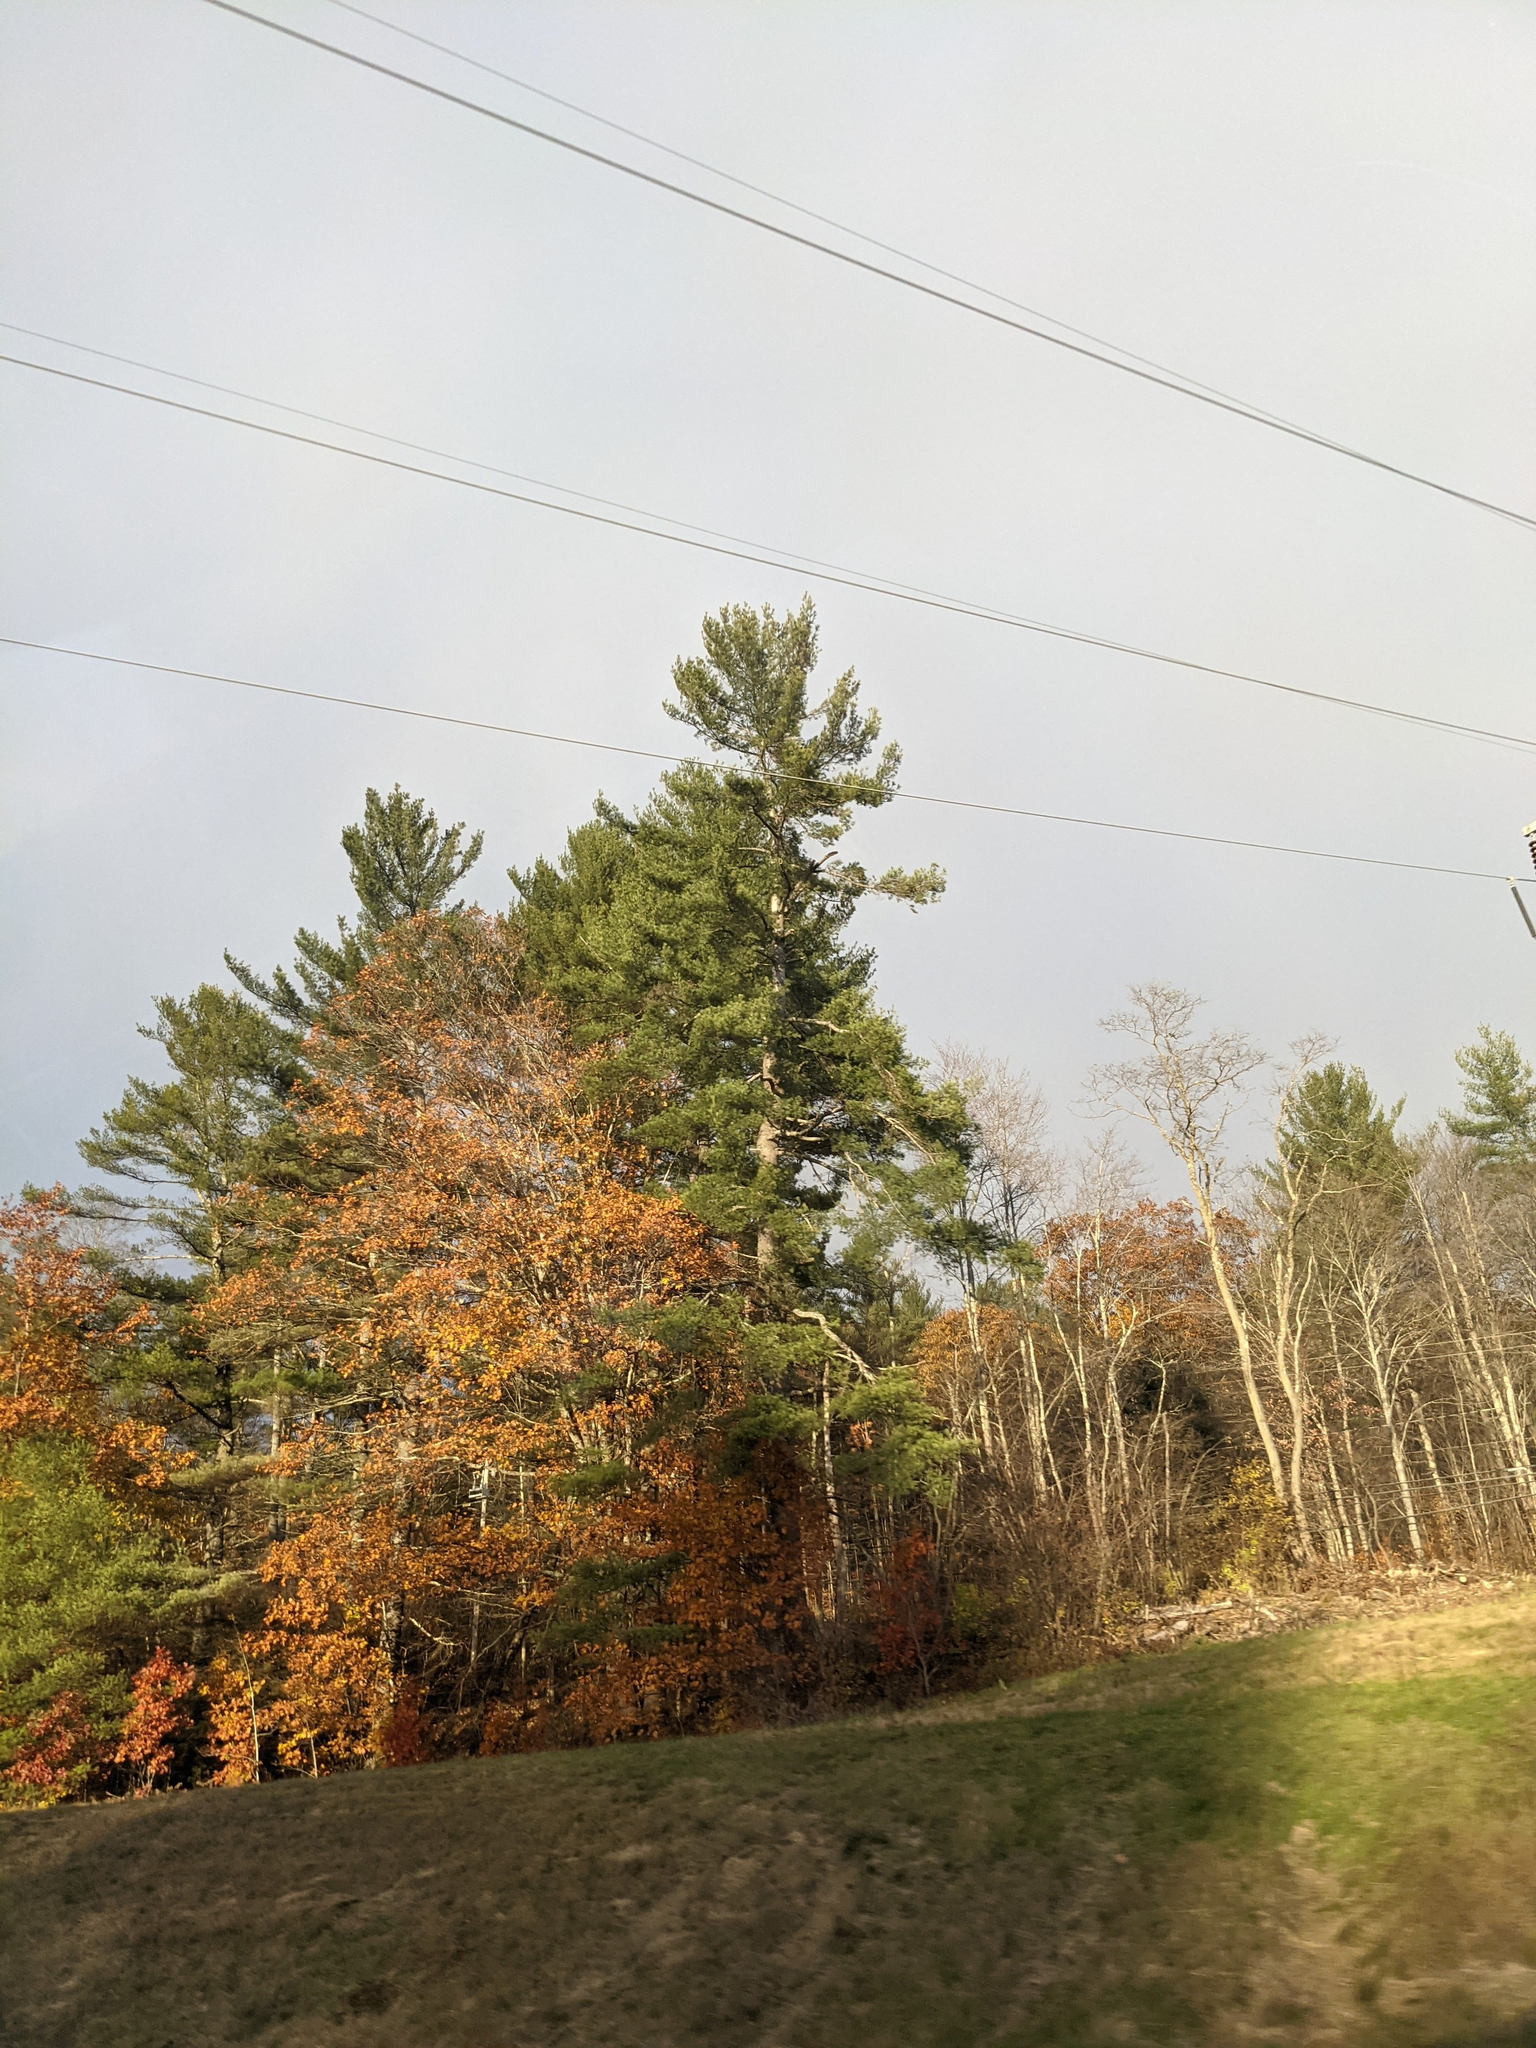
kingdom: Plantae
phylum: Tracheophyta
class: Pinopsida
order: Pinales
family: Pinaceae
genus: Pinus
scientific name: Pinus strobus
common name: Weymouth pine
